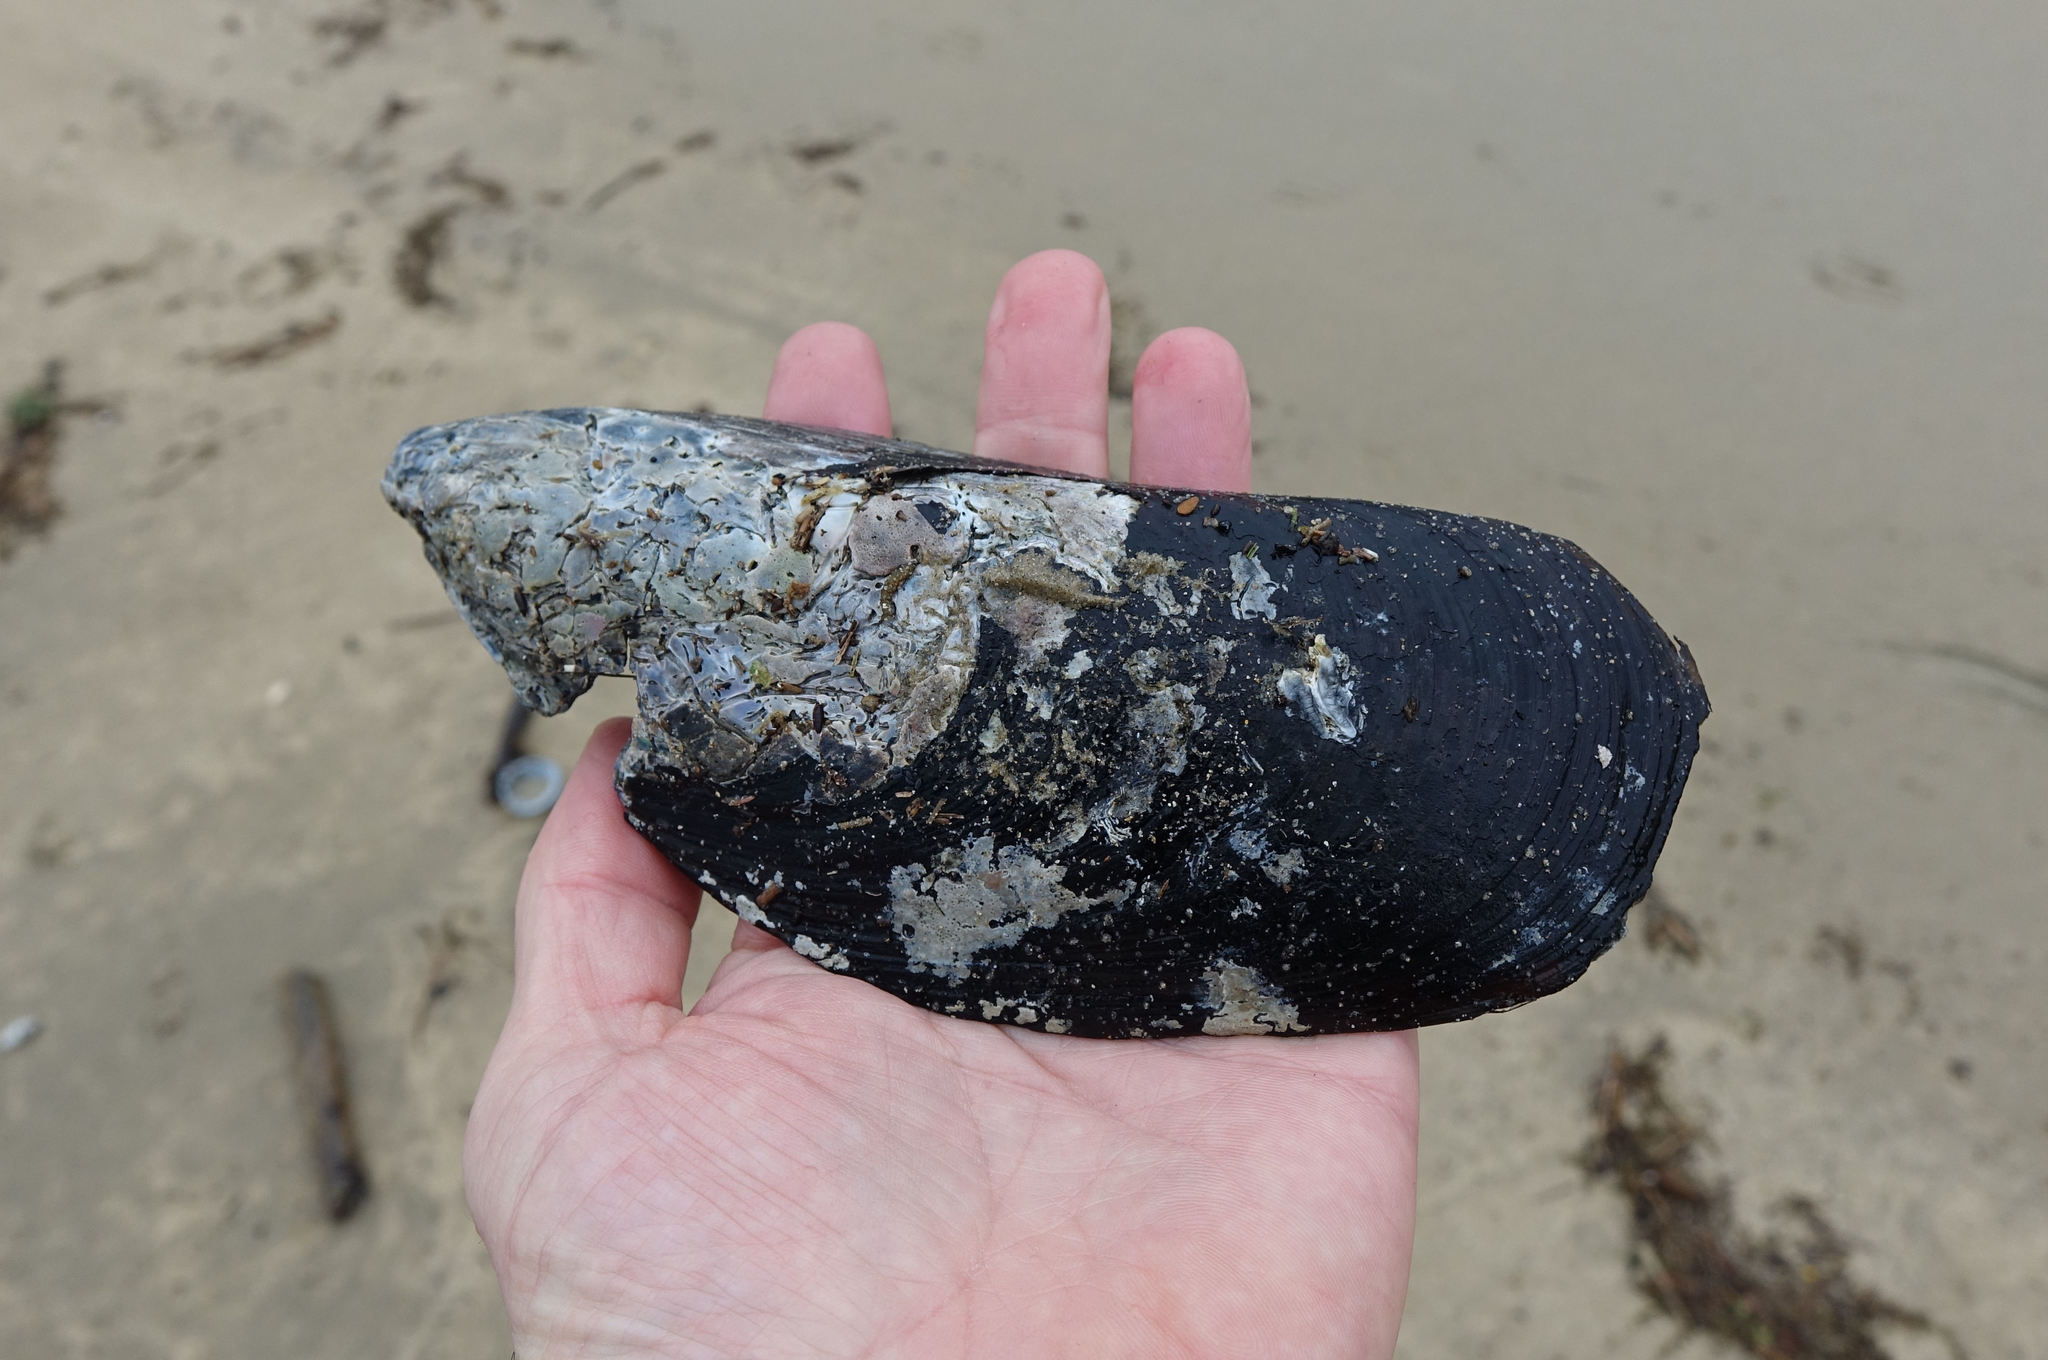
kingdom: Animalia
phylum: Mollusca
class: Bivalvia
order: Mytilida
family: Mytilidae
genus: Perna
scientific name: Perna canaliculus
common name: New zealand greenshelltm
